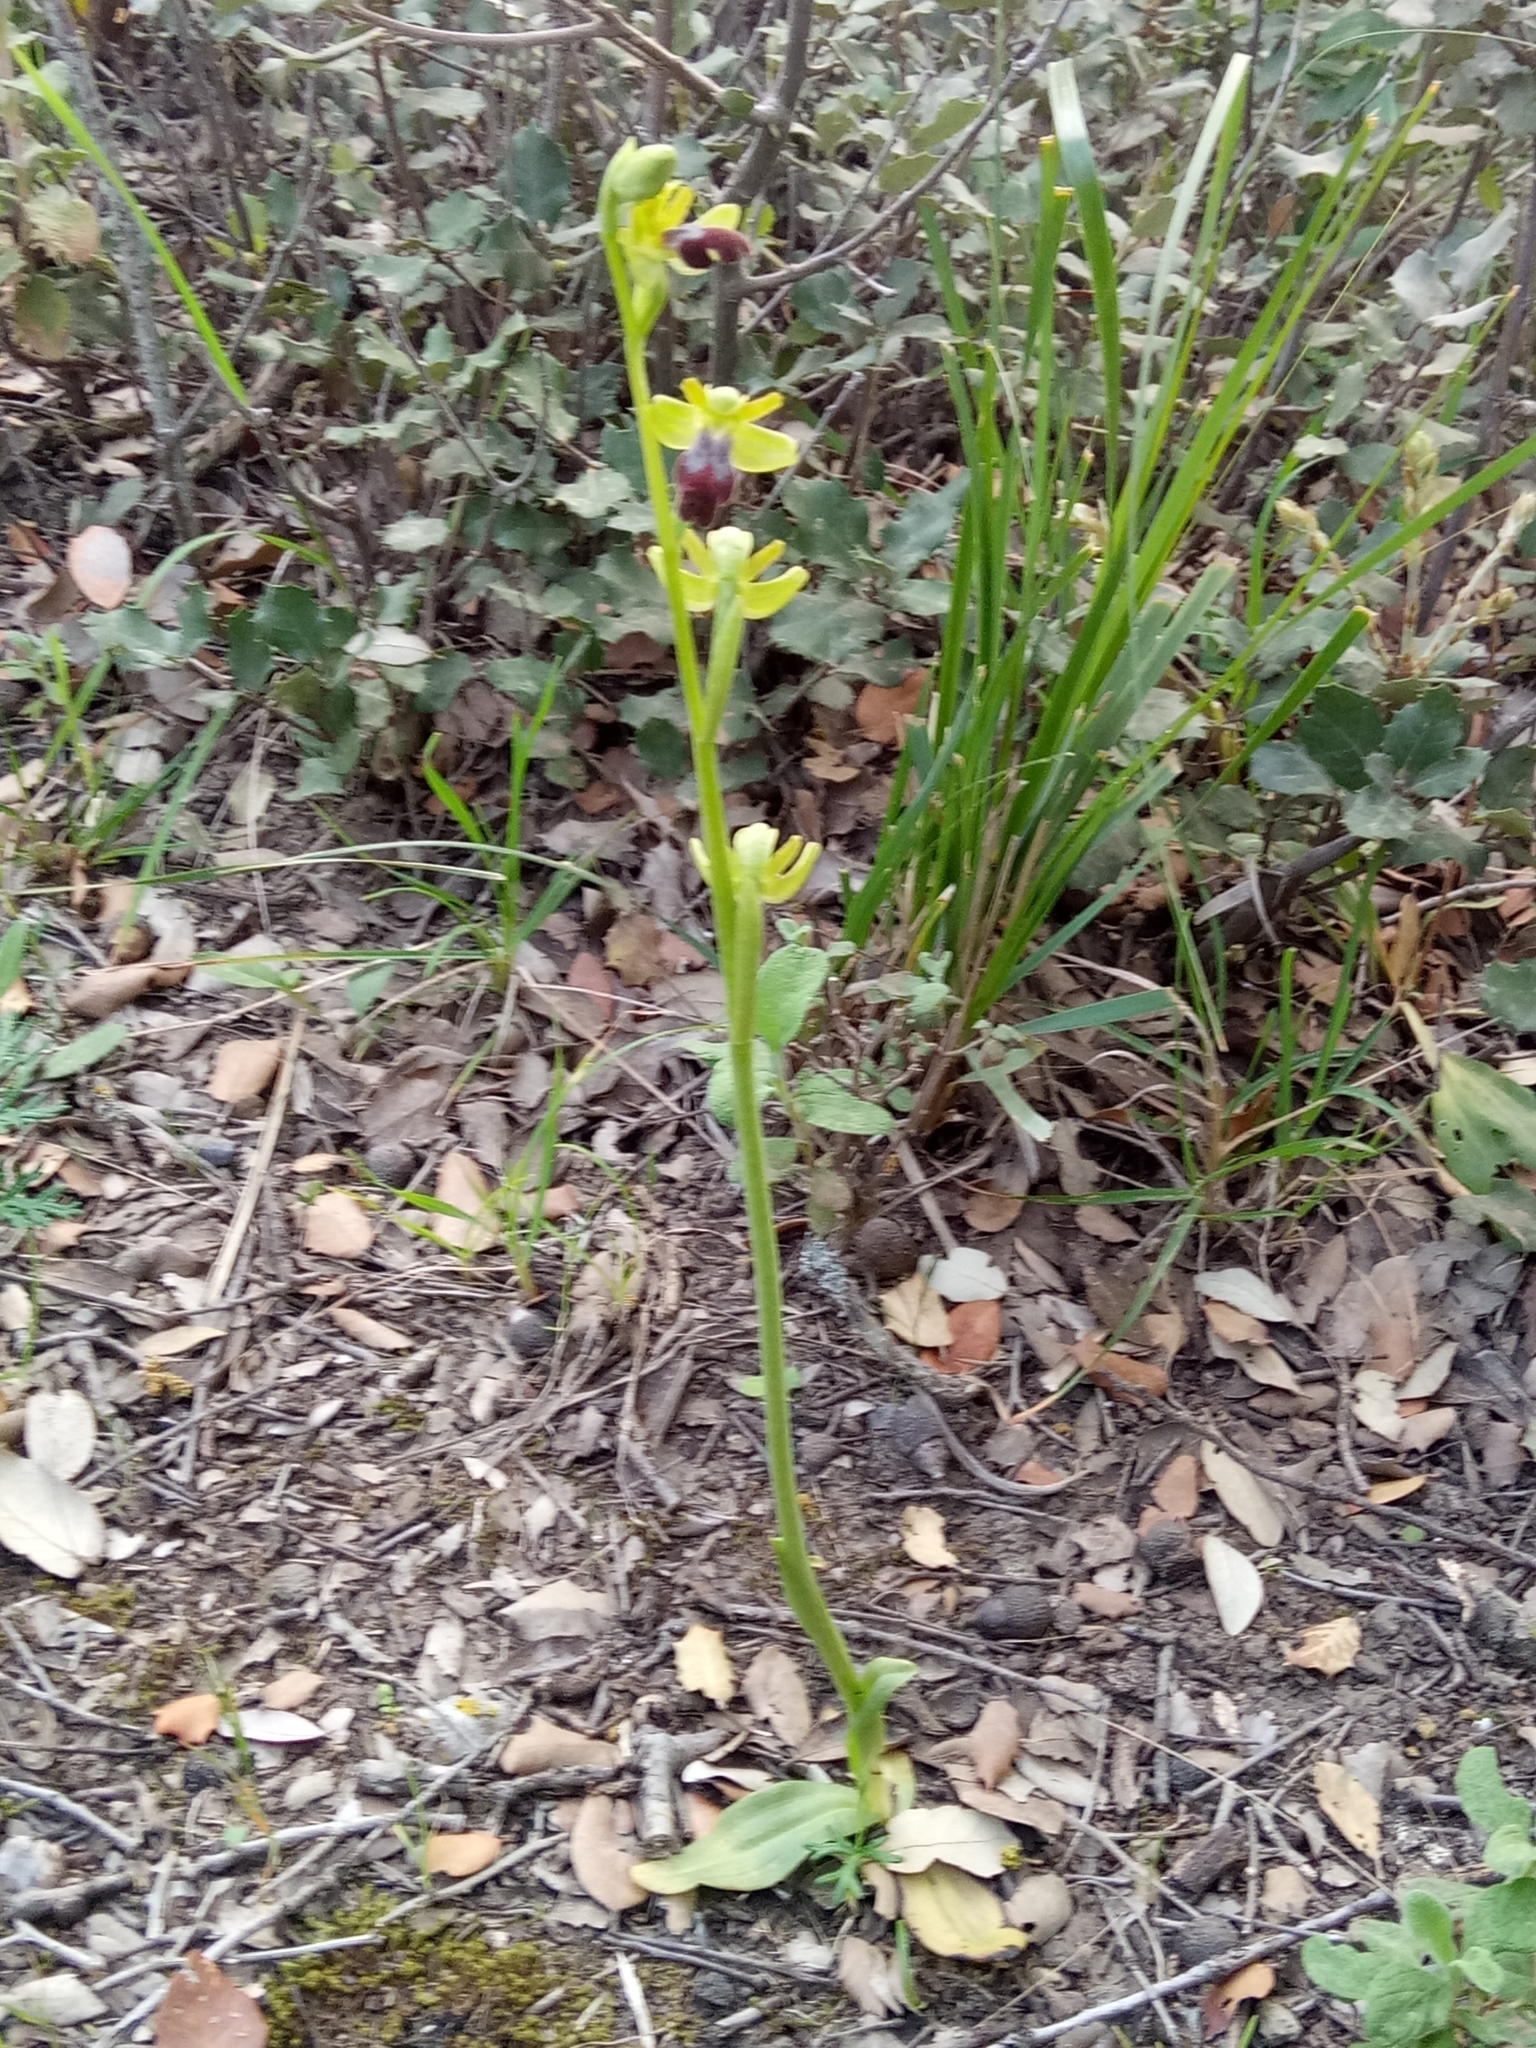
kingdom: Plantae
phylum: Tracheophyta
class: Liliopsida
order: Asparagales
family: Orchidaceae
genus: Ophrys
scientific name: Ophrys fusca
